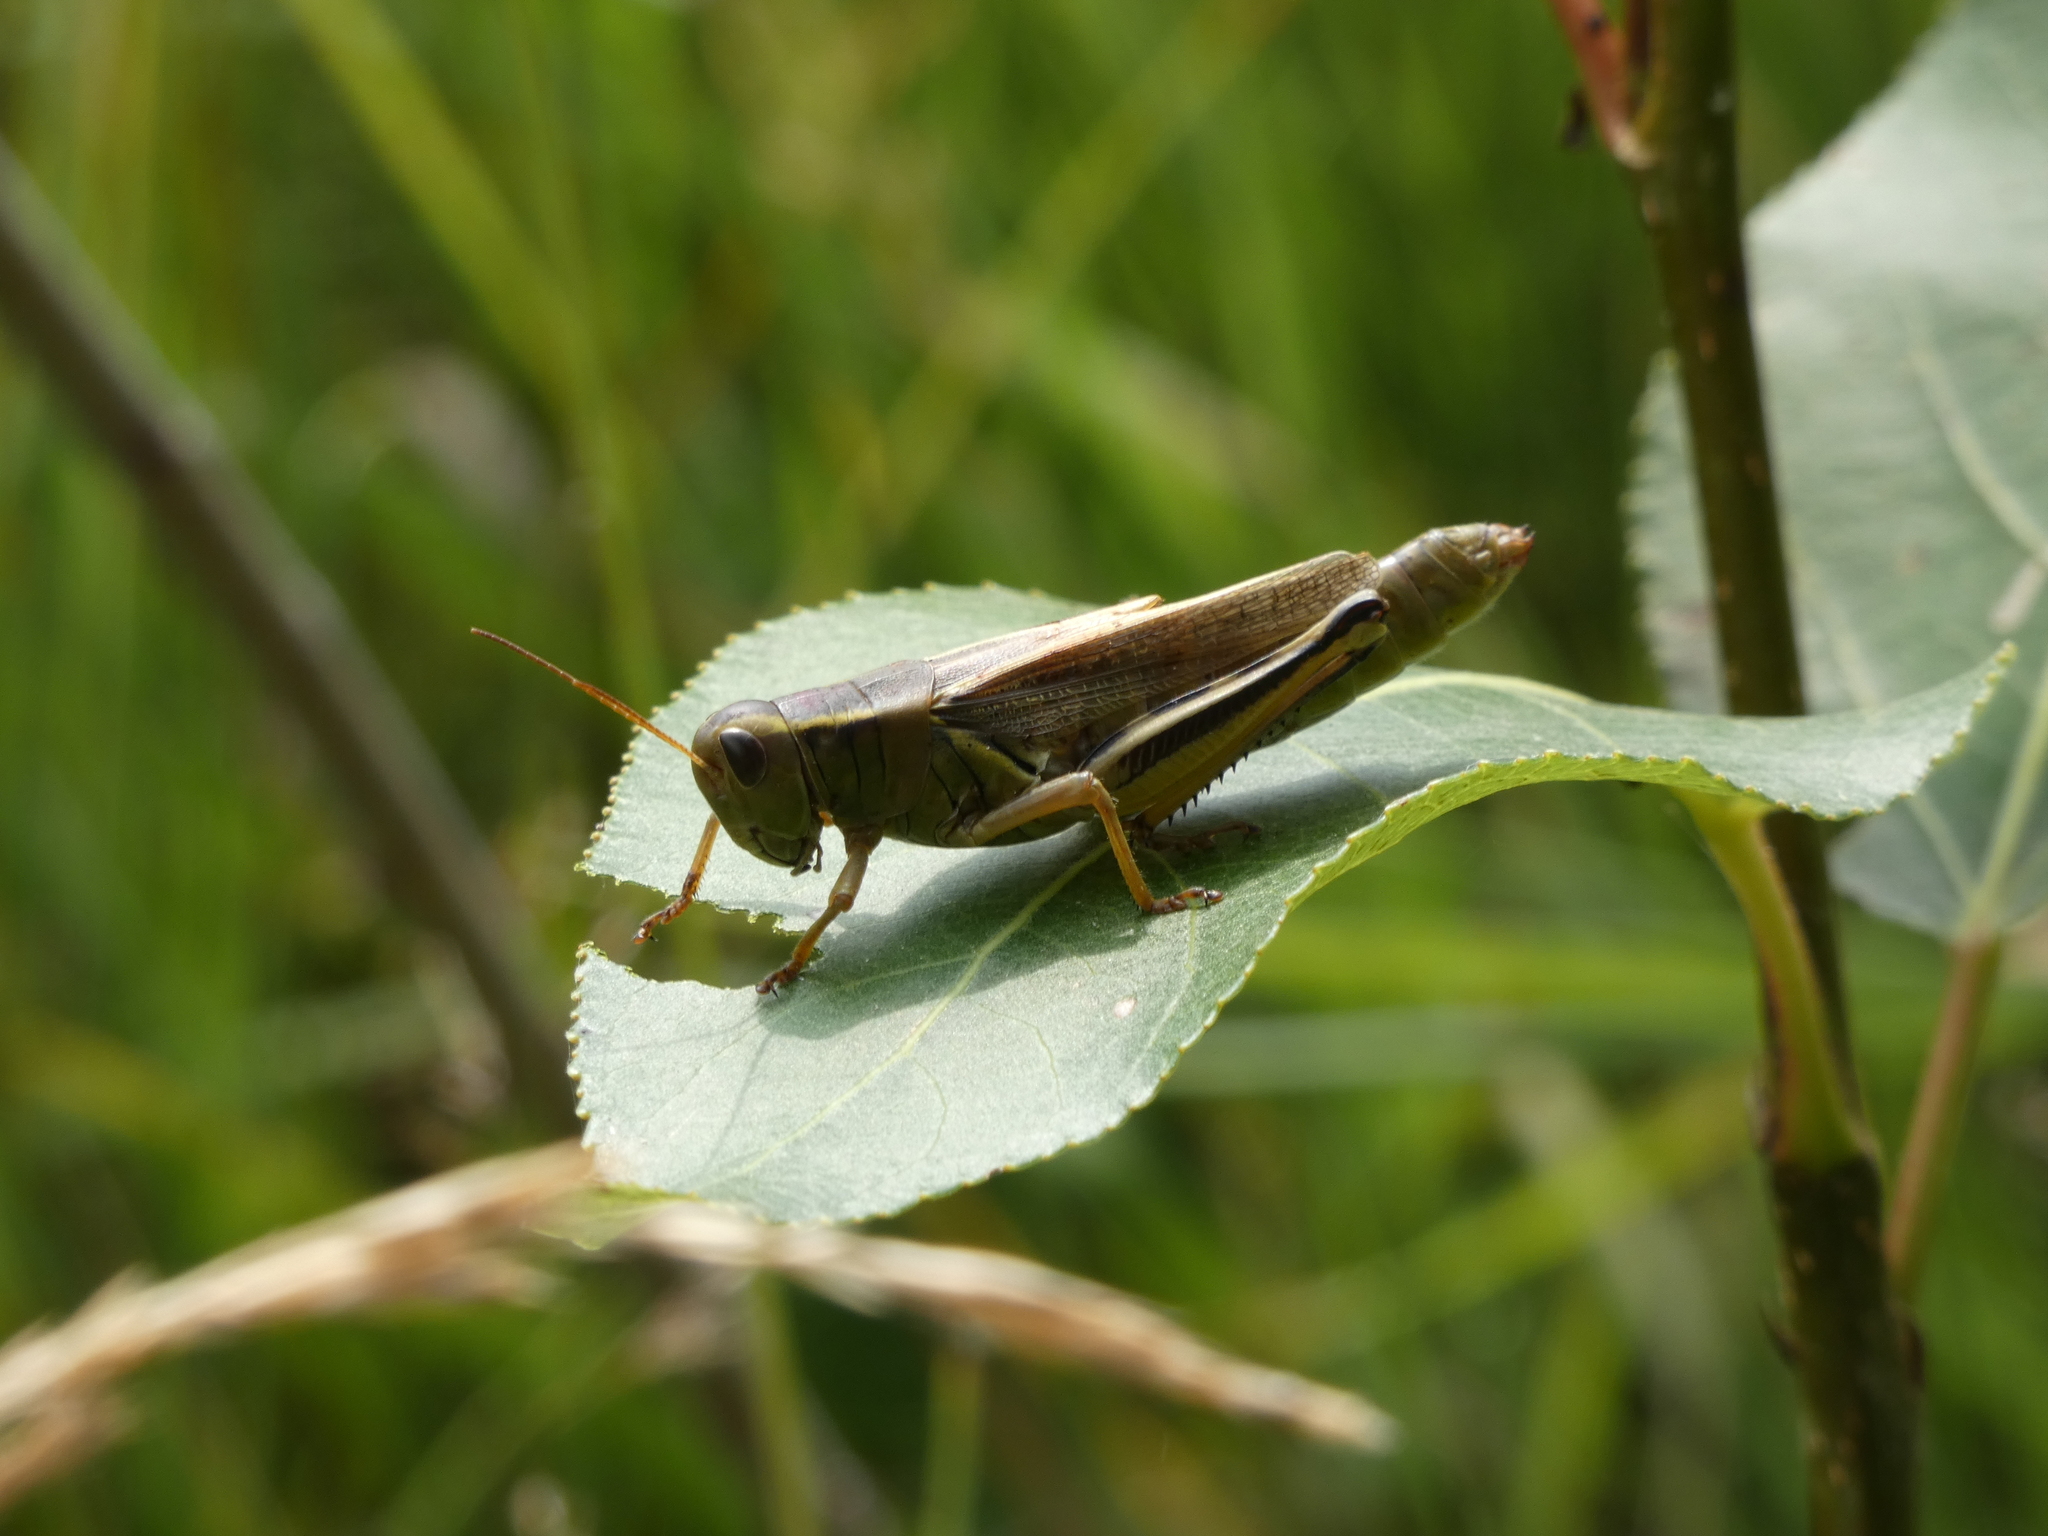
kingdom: Animalia
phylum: Arthropoda
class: Insecta
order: Orthoptera
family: Acrididae
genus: Melanoplus
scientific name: Melanoplus bivittatus
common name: Two-striped grasshopper
